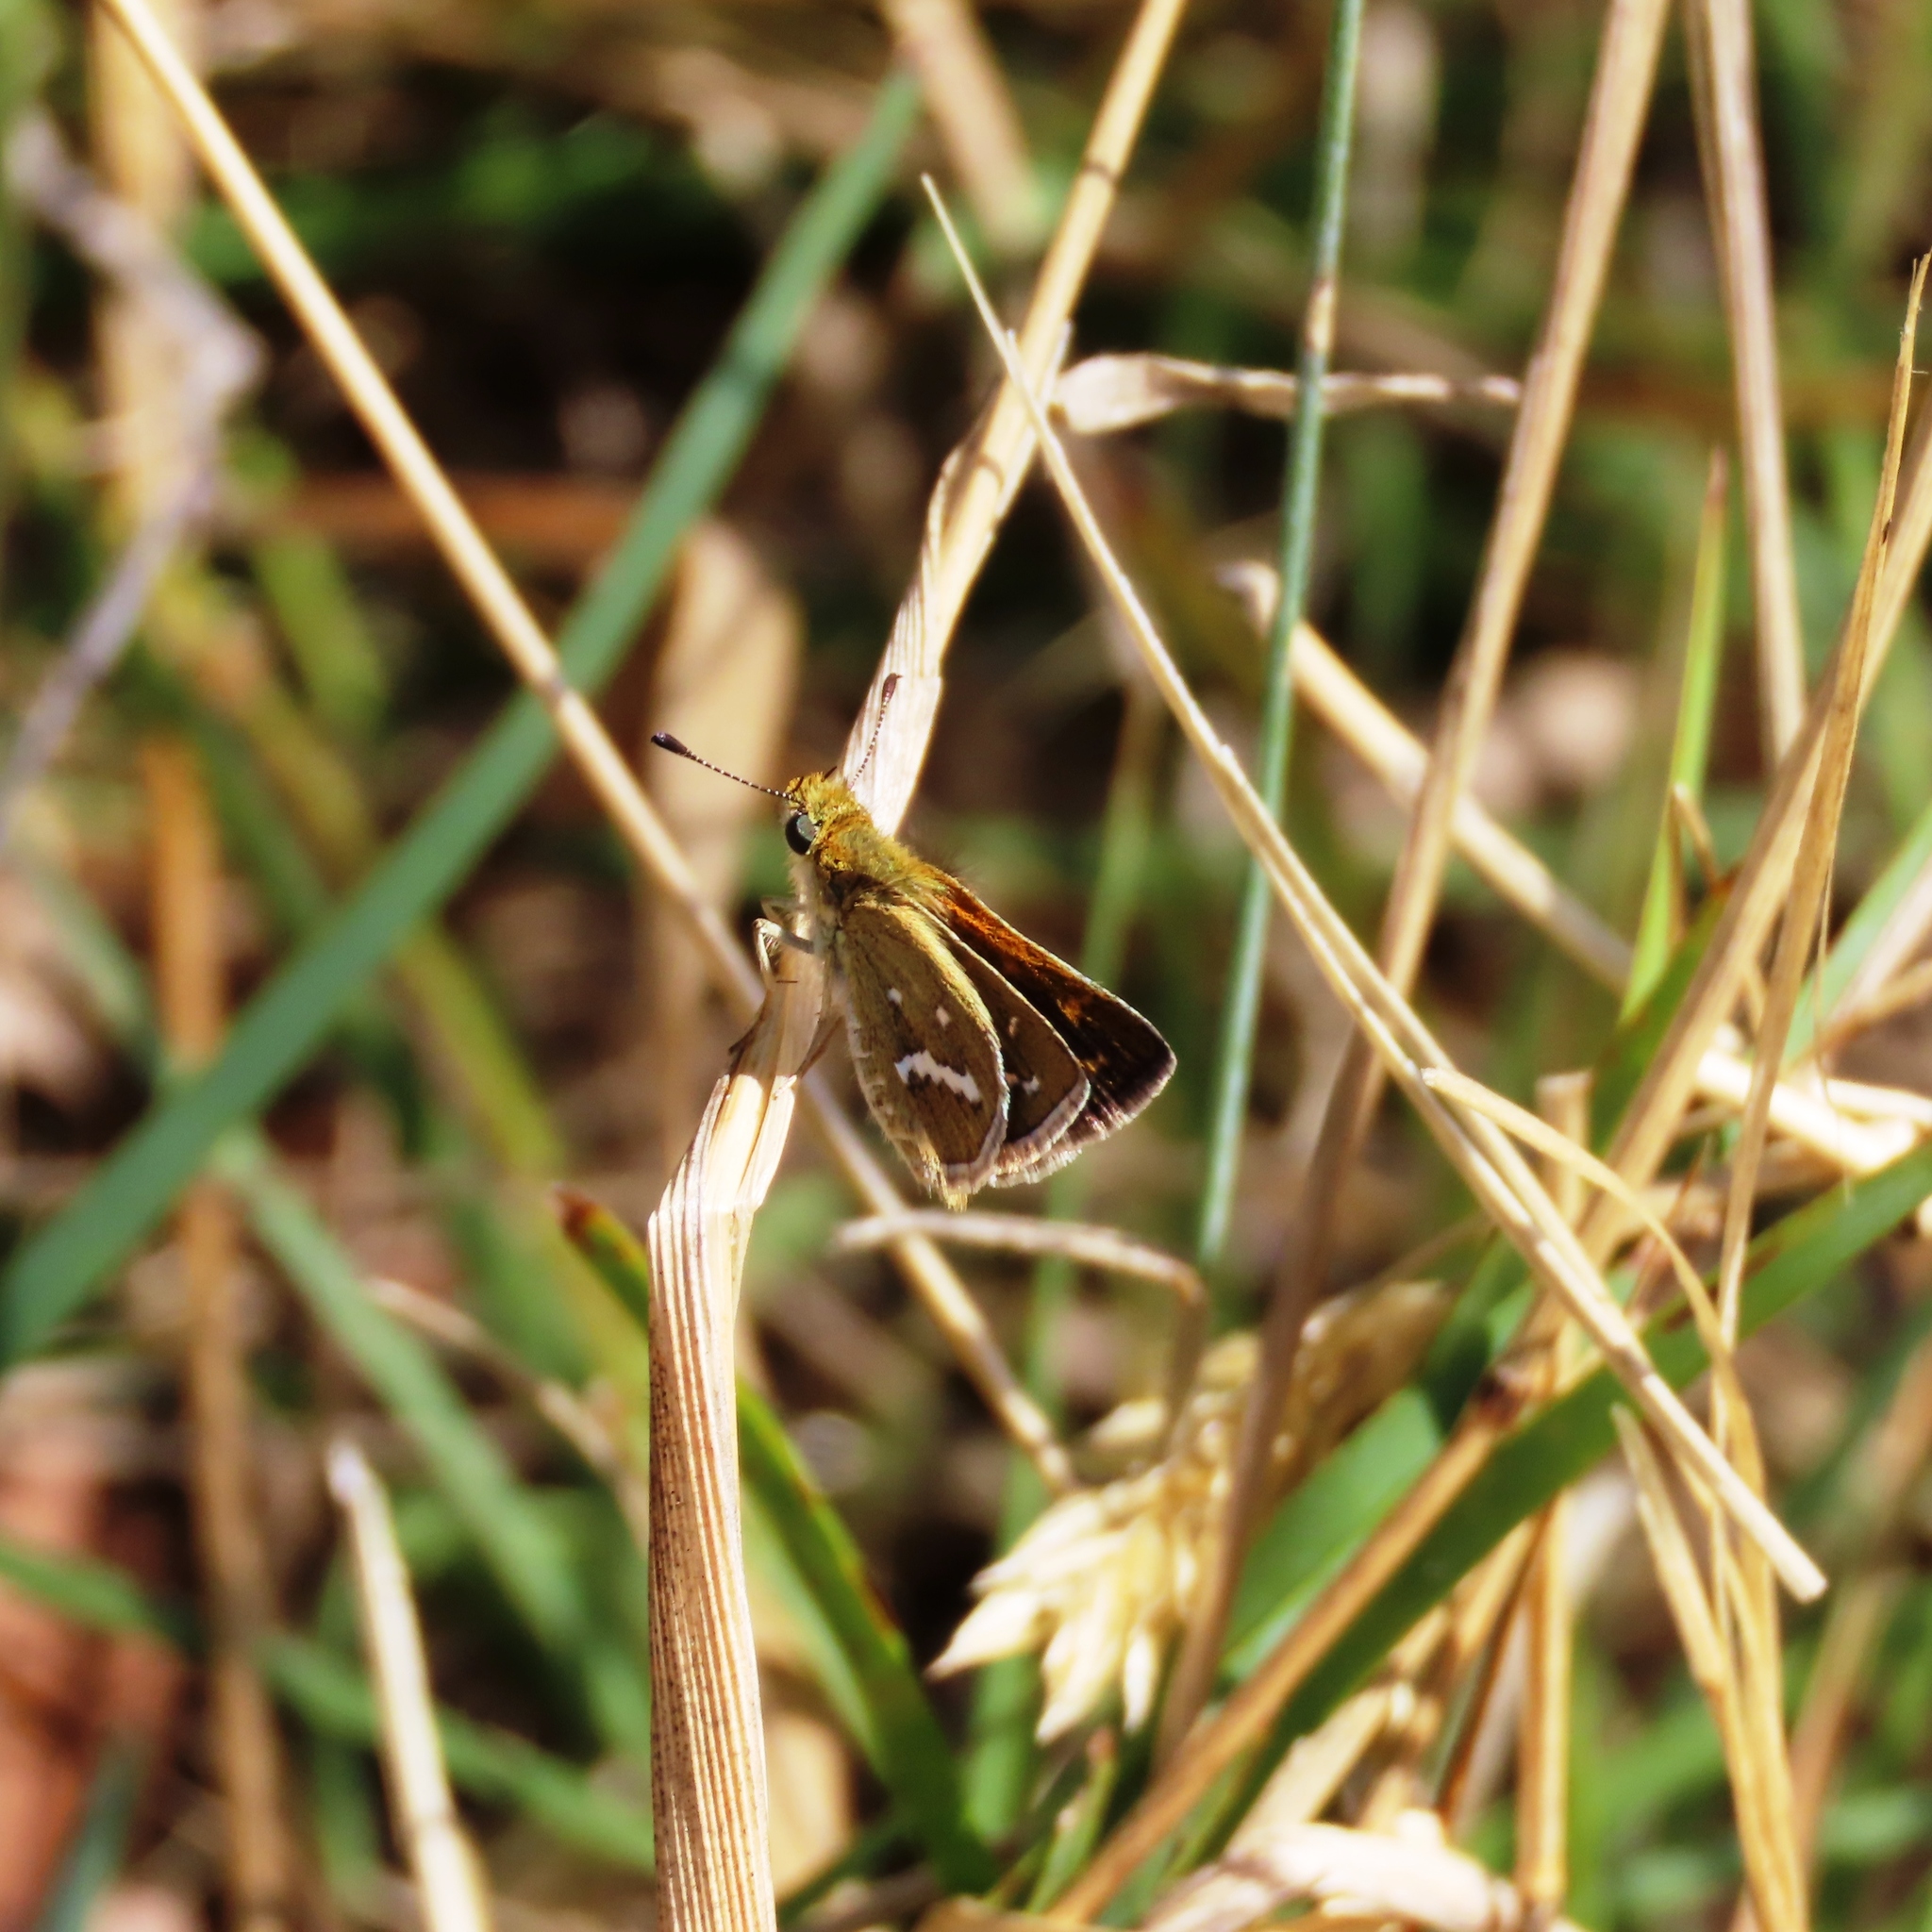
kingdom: Animalia
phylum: Arthropoda
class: Insecta
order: Lepidoptera
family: Hesperiidae
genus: Taractrocera
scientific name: Taractrocera papyria
